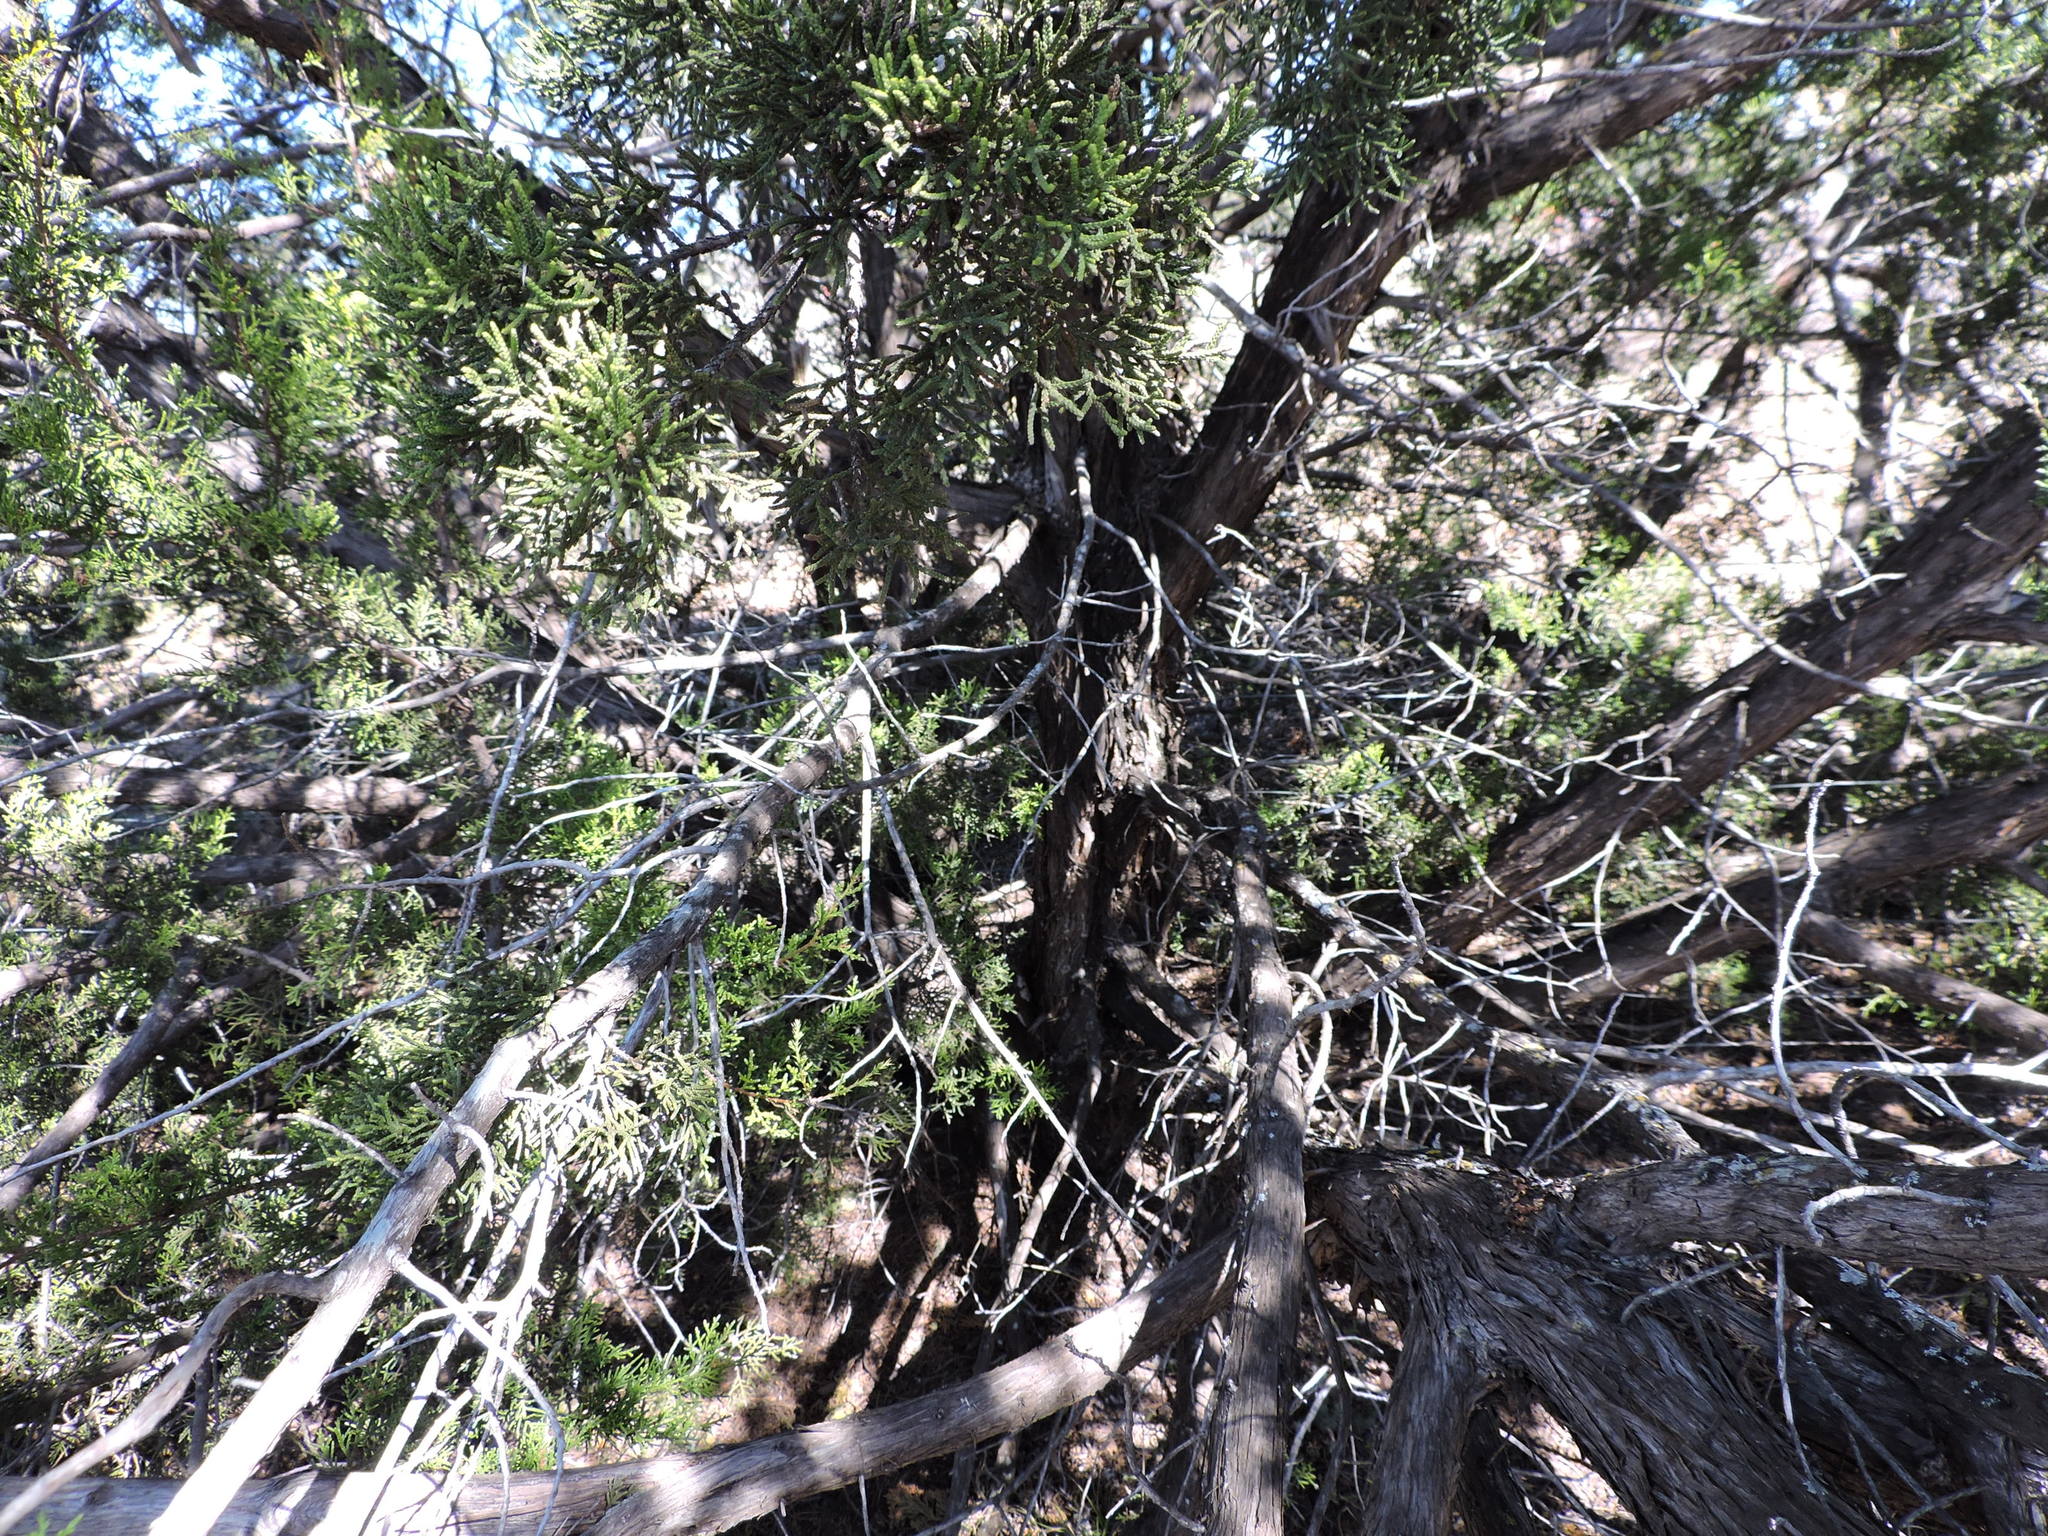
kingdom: Plantae
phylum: Tracheophyta
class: Pinopsida
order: Pinales
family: Cupressaceae
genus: Juniperus
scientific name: Juniperus ashei
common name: Mexican juniper
